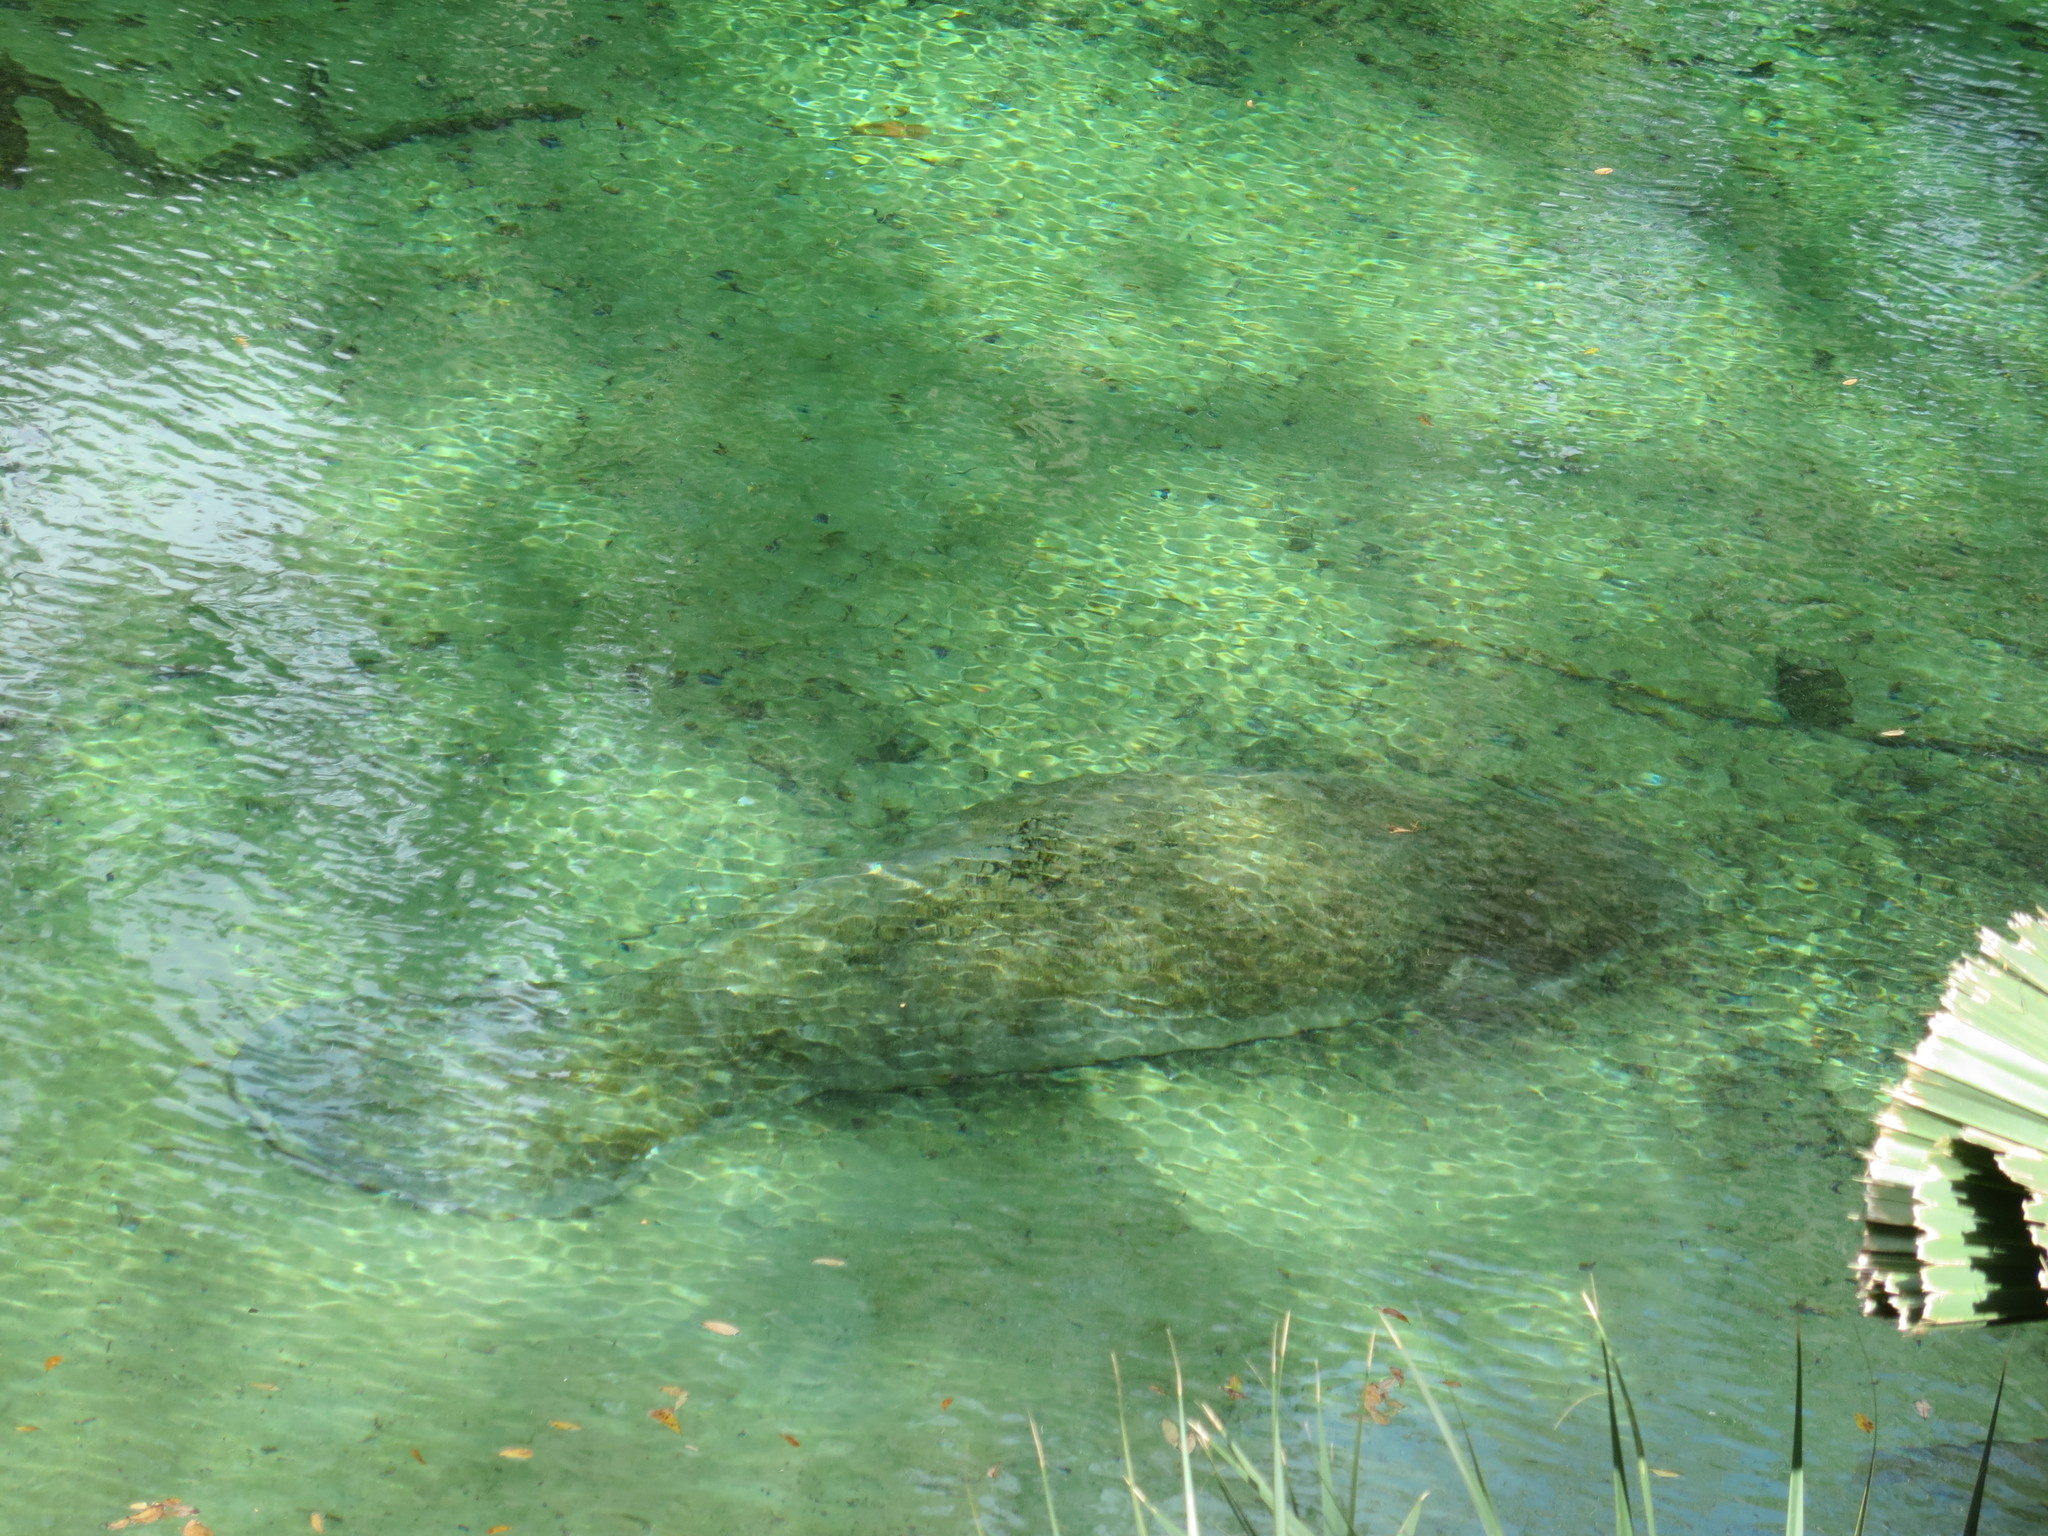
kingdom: Animalia
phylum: Chordata
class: Mammalia
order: Sirenia
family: Trichechidae
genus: Trichechus
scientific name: Trichechus manatus
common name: West indian manatee
